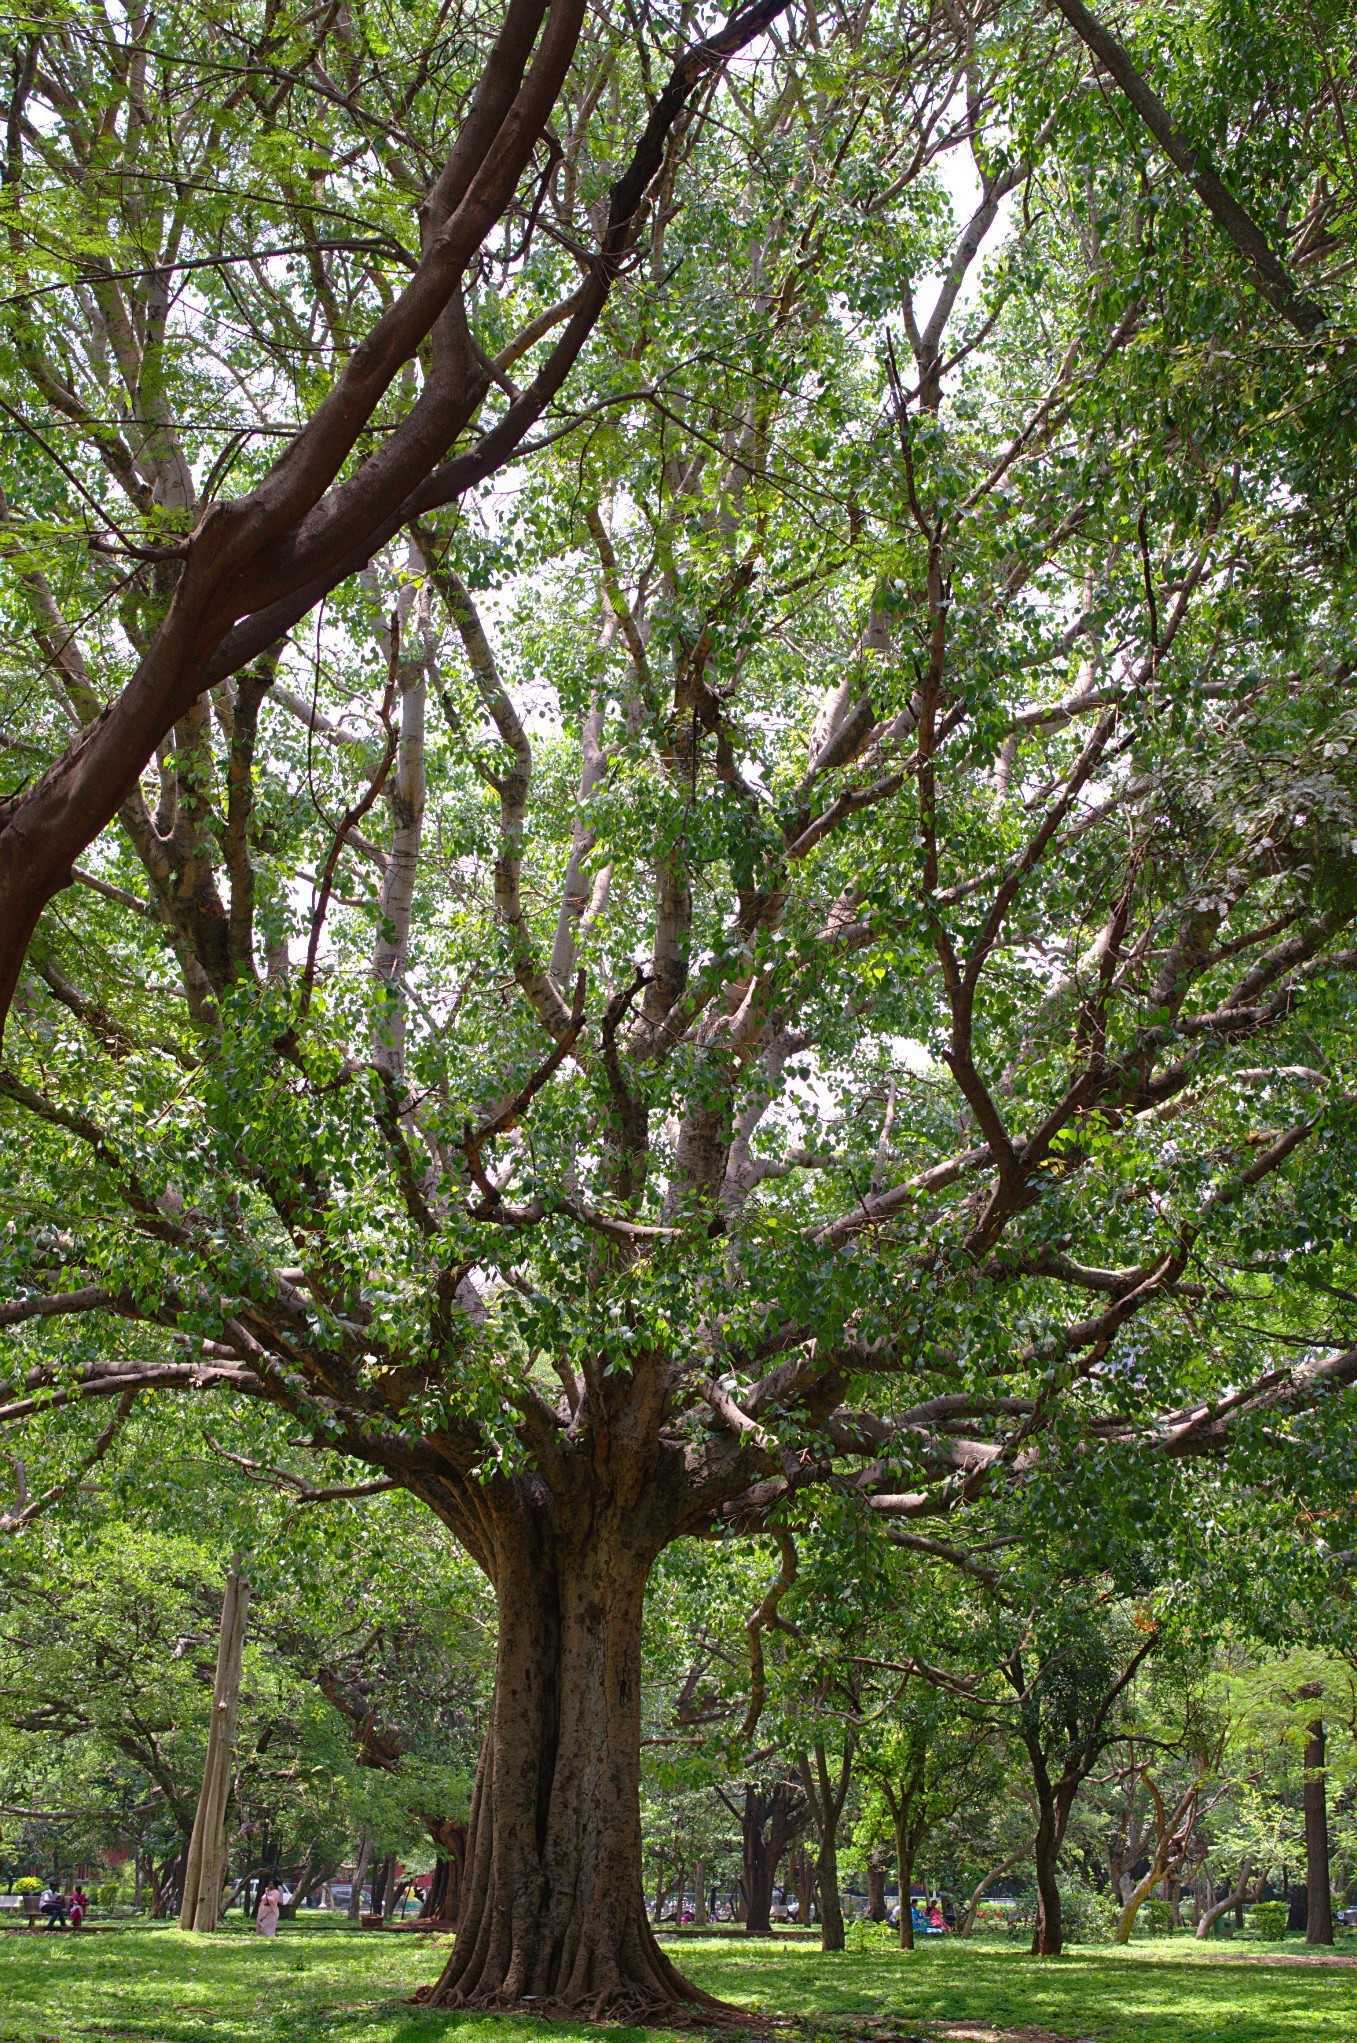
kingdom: Plantae
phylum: Tracheophyta
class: Magnoliopsida
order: Rosales
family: Moraceae
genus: Ficus
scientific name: Ficus religiosa
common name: Bodhi tree
